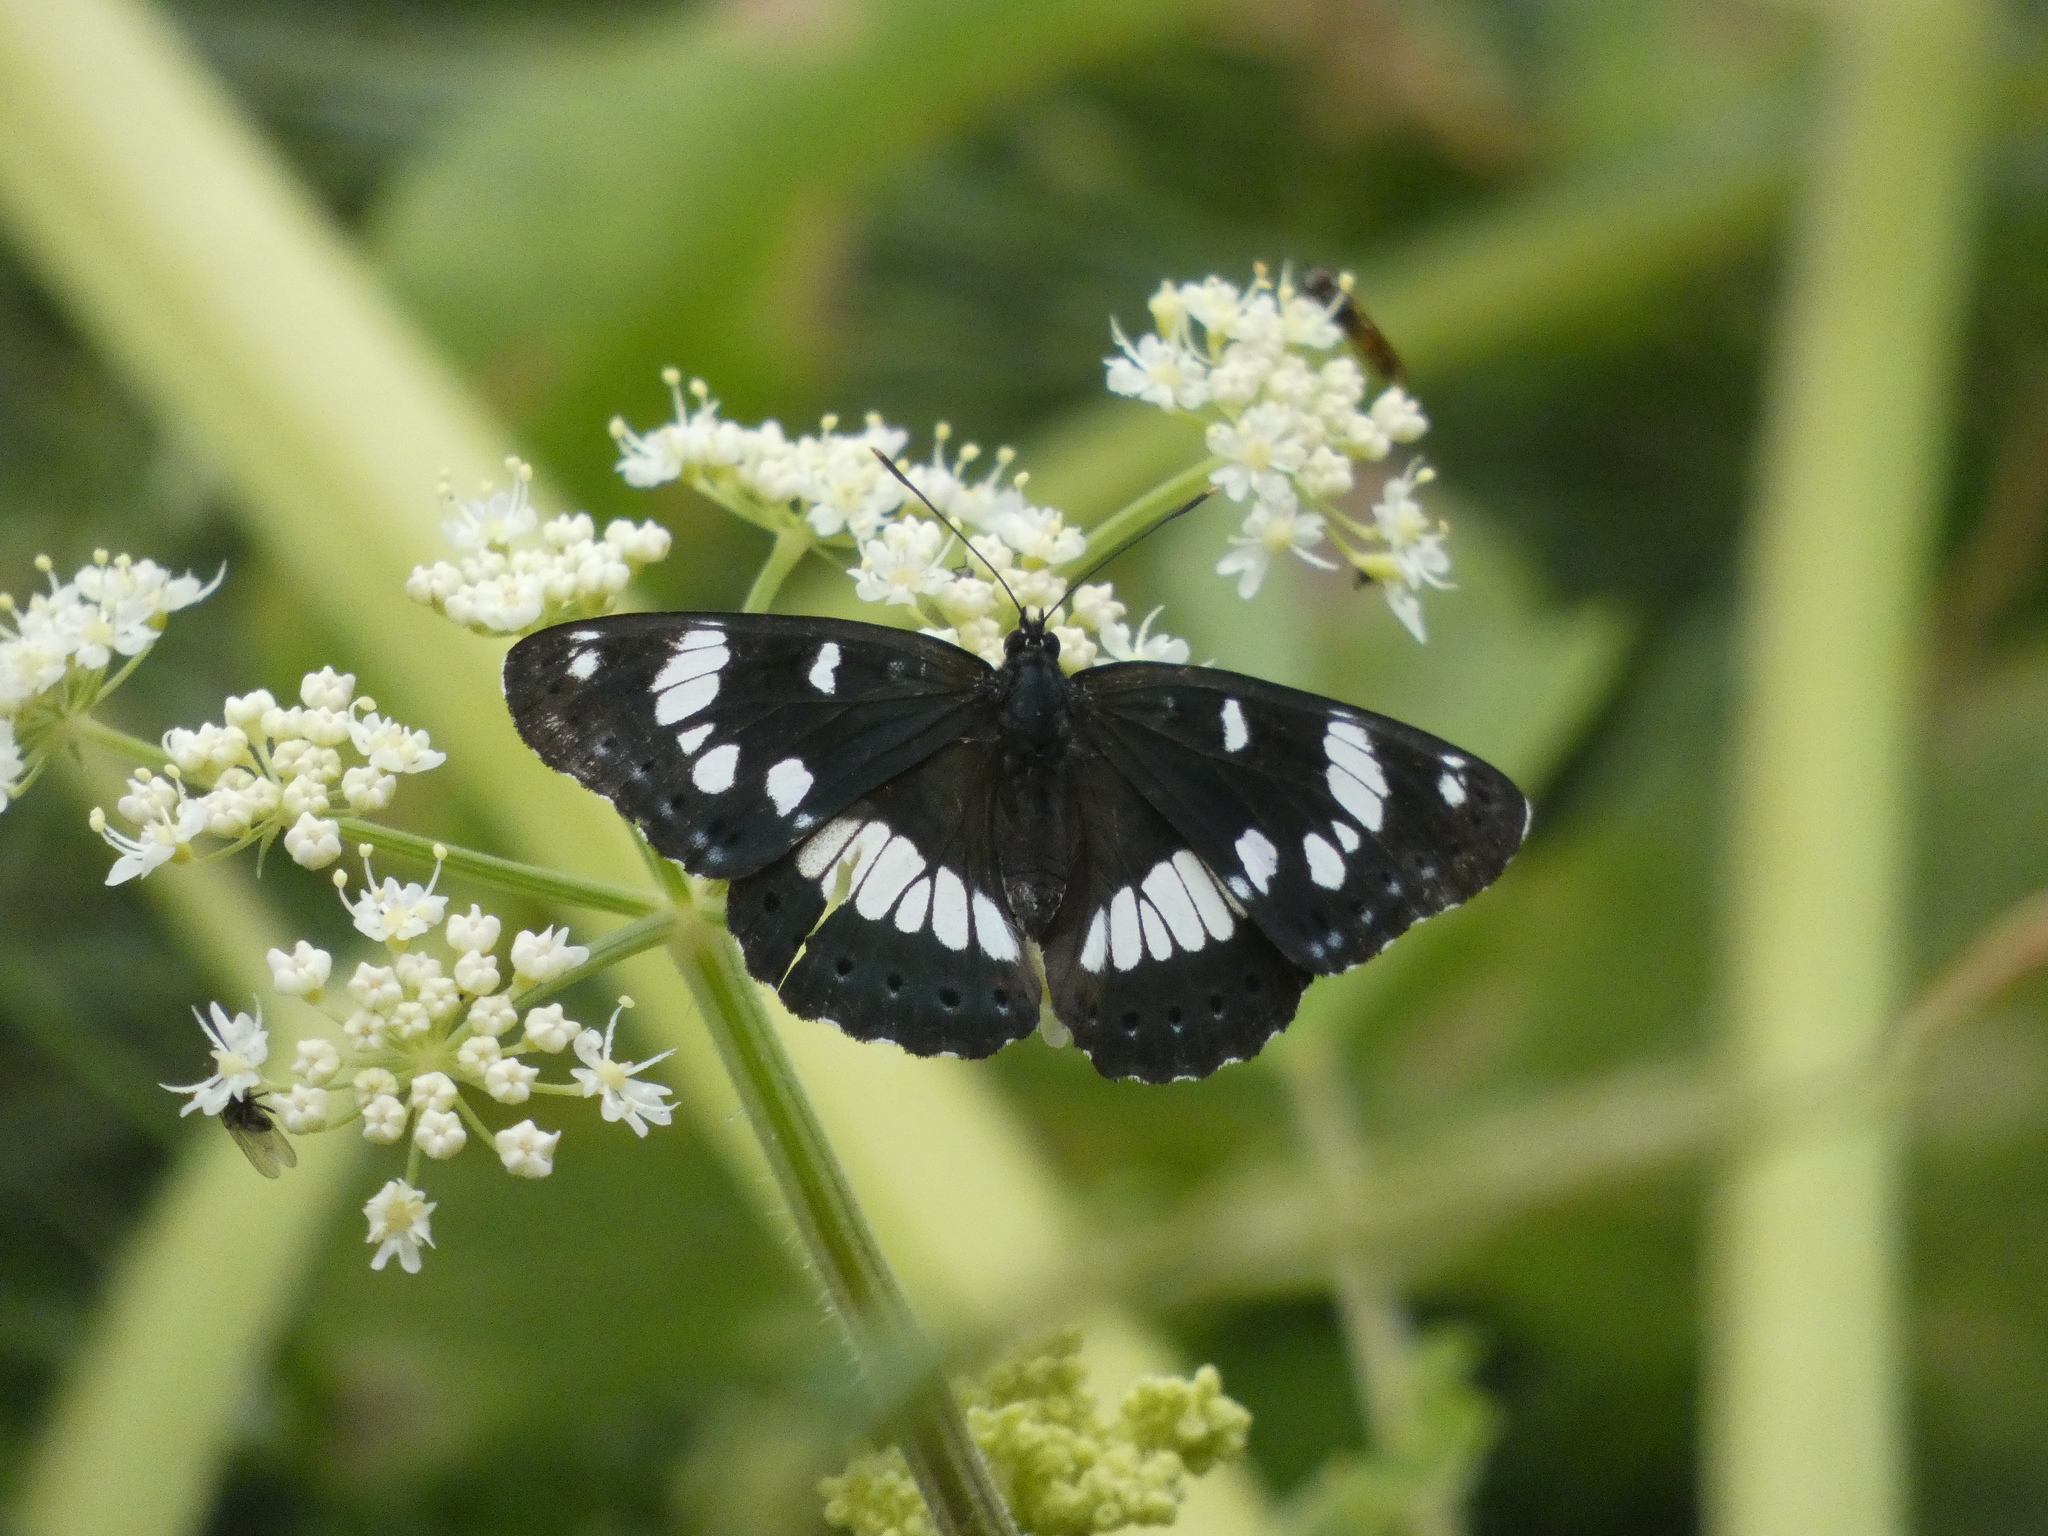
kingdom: Animalia
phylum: Arthropoda
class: Insecta
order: Lepidoptera
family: Nymphalidae
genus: Limenitis
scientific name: Limenitis reducta
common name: Southern white admiral
